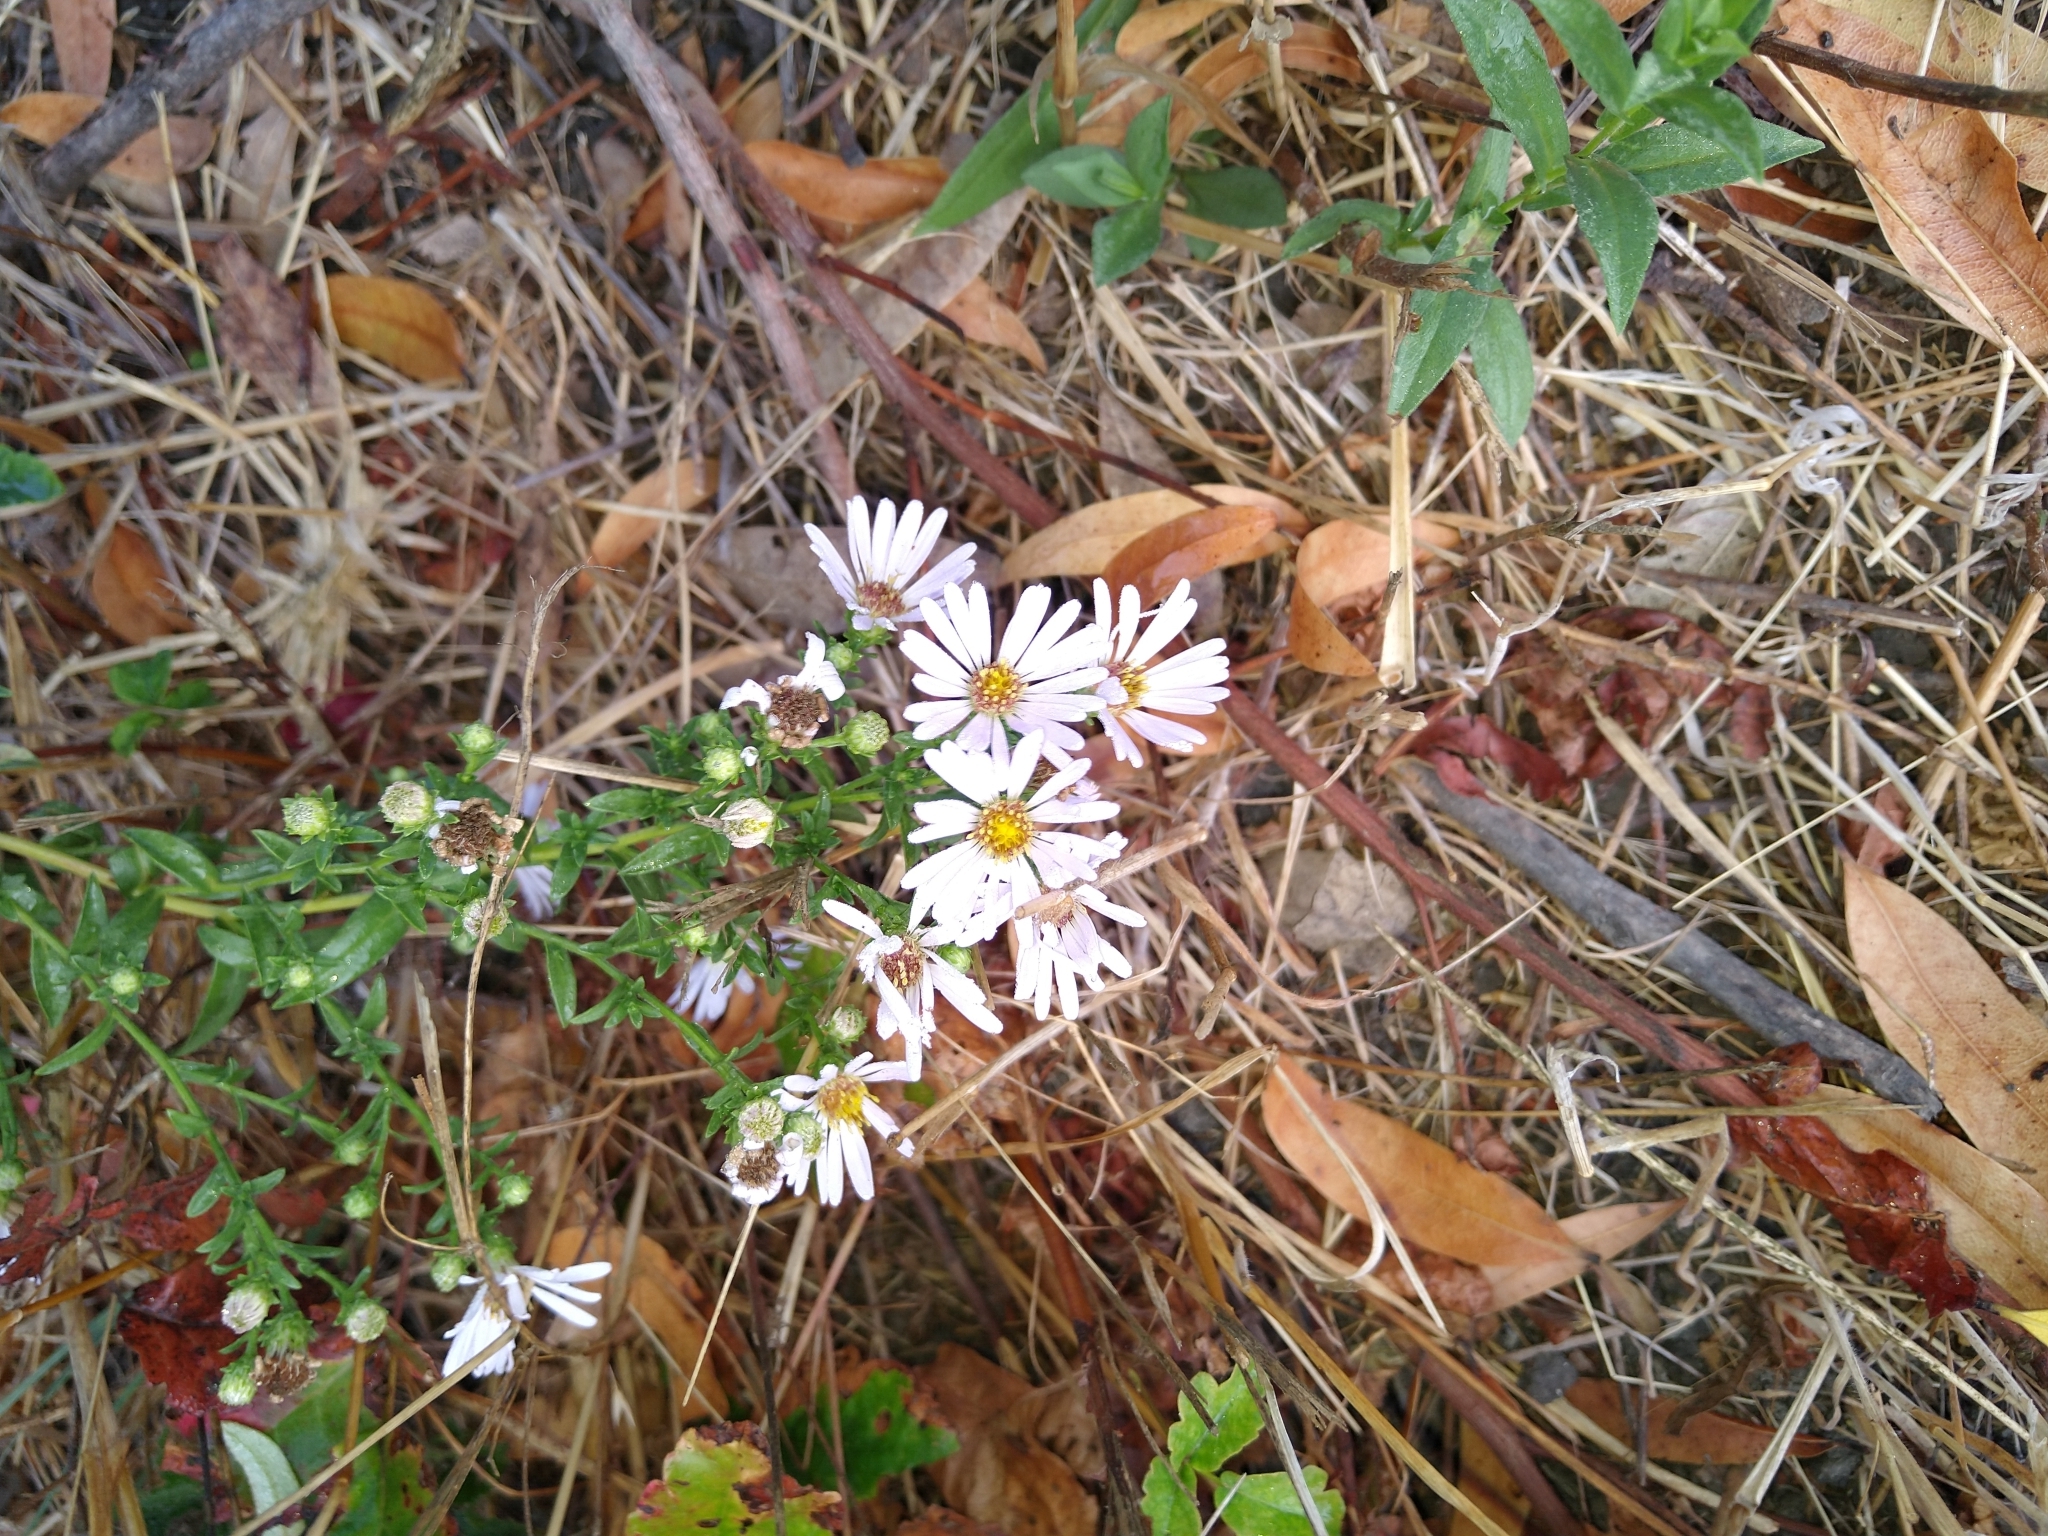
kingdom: Plantae
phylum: Tracheophyta
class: Magnoliopsida
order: Asterales
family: Asteraceae
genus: Symphyotrichum
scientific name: Symphyotrichum chilense
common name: Pacific aster
